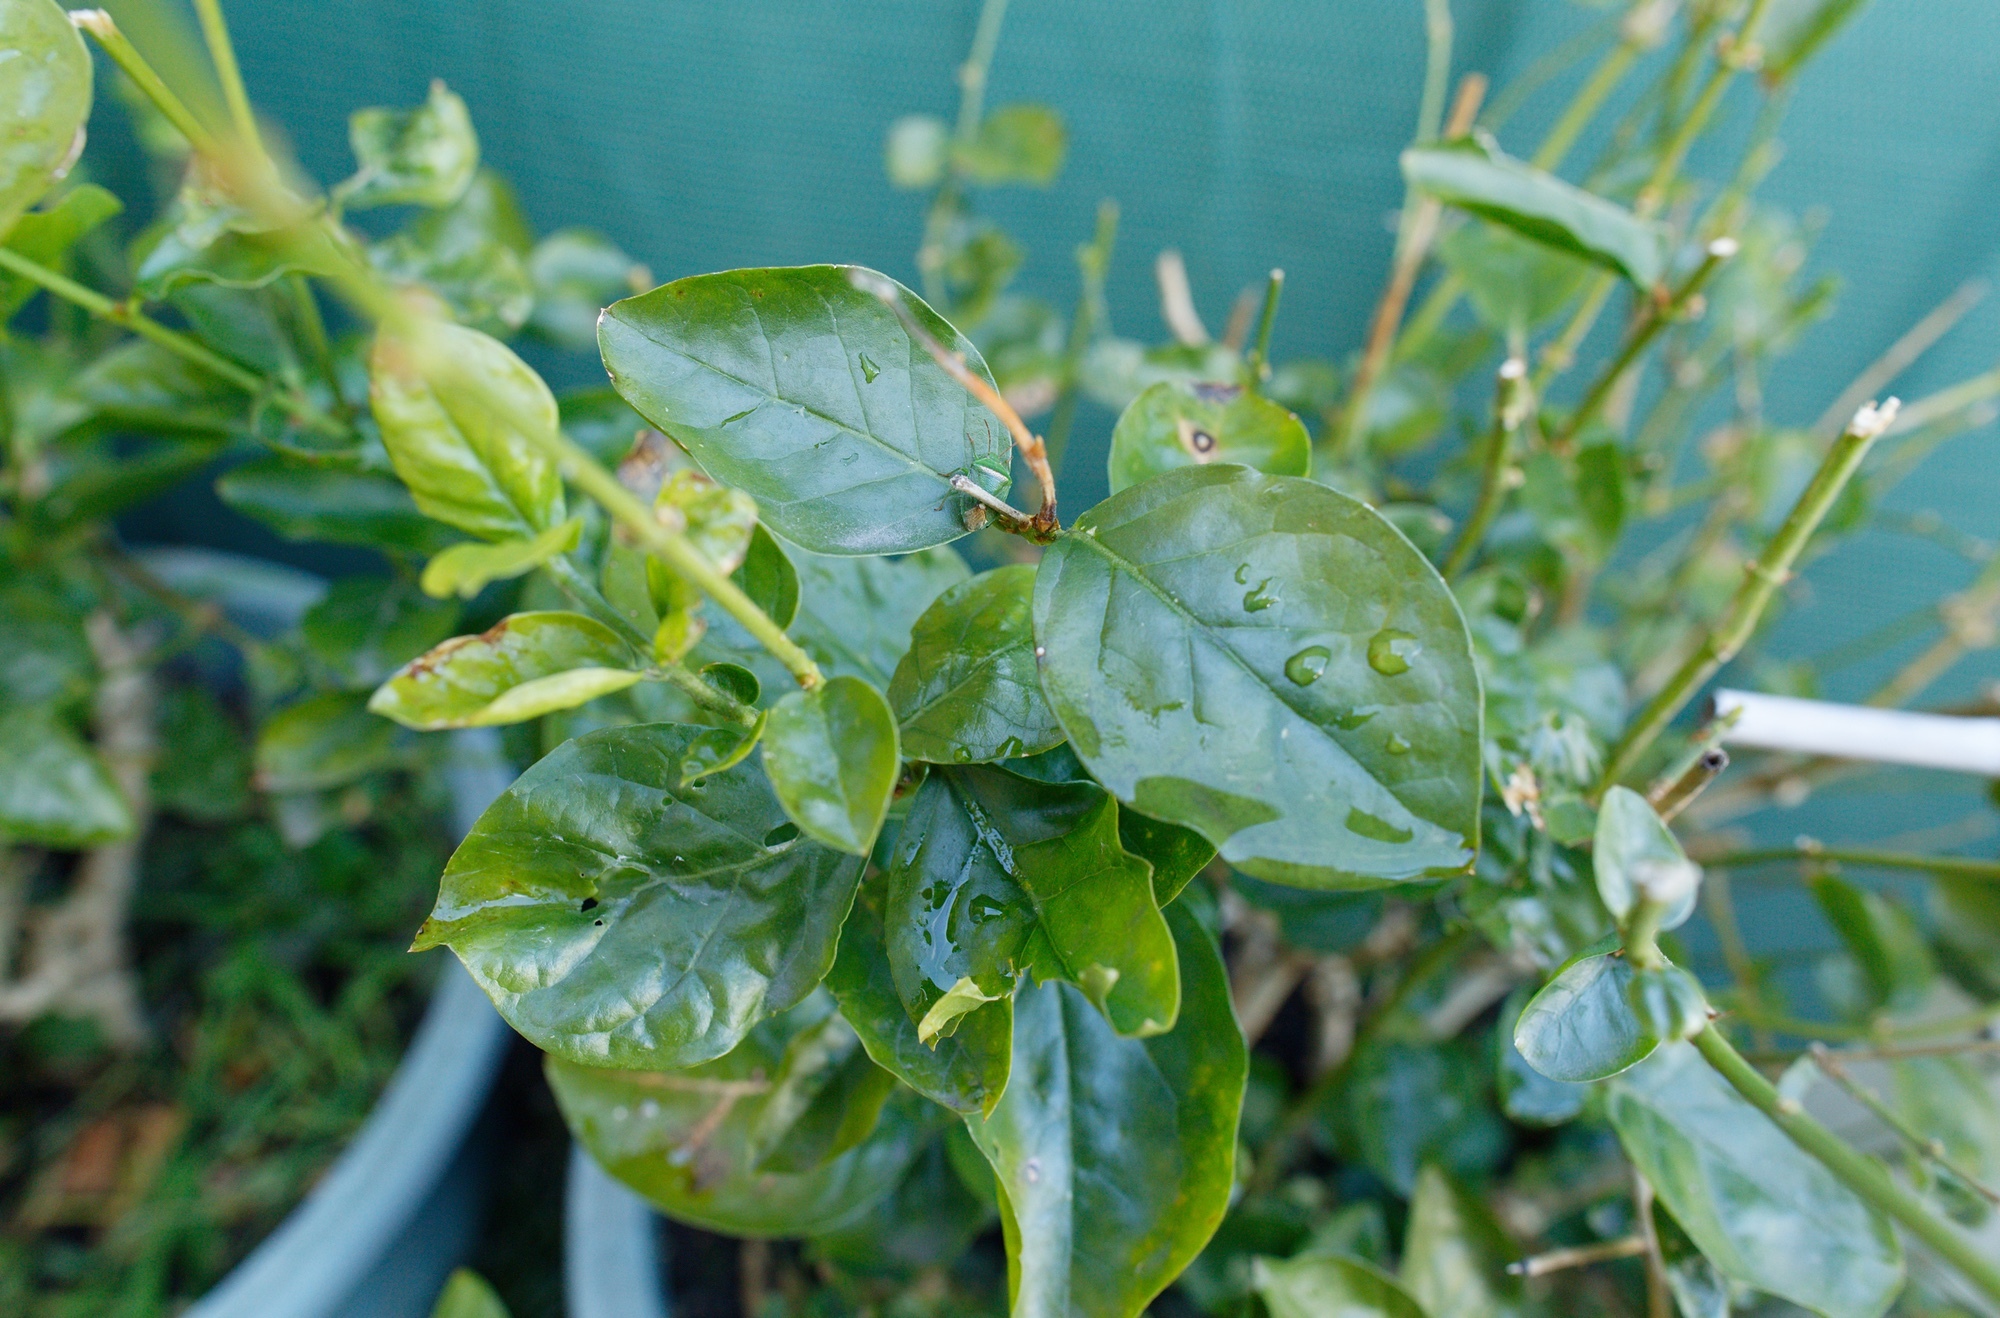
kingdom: Animalia
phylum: Arthropoda
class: Insecta
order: Hemiptera
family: Pentatomidae
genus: Ocirrhoe
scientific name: Ocirrhoe
